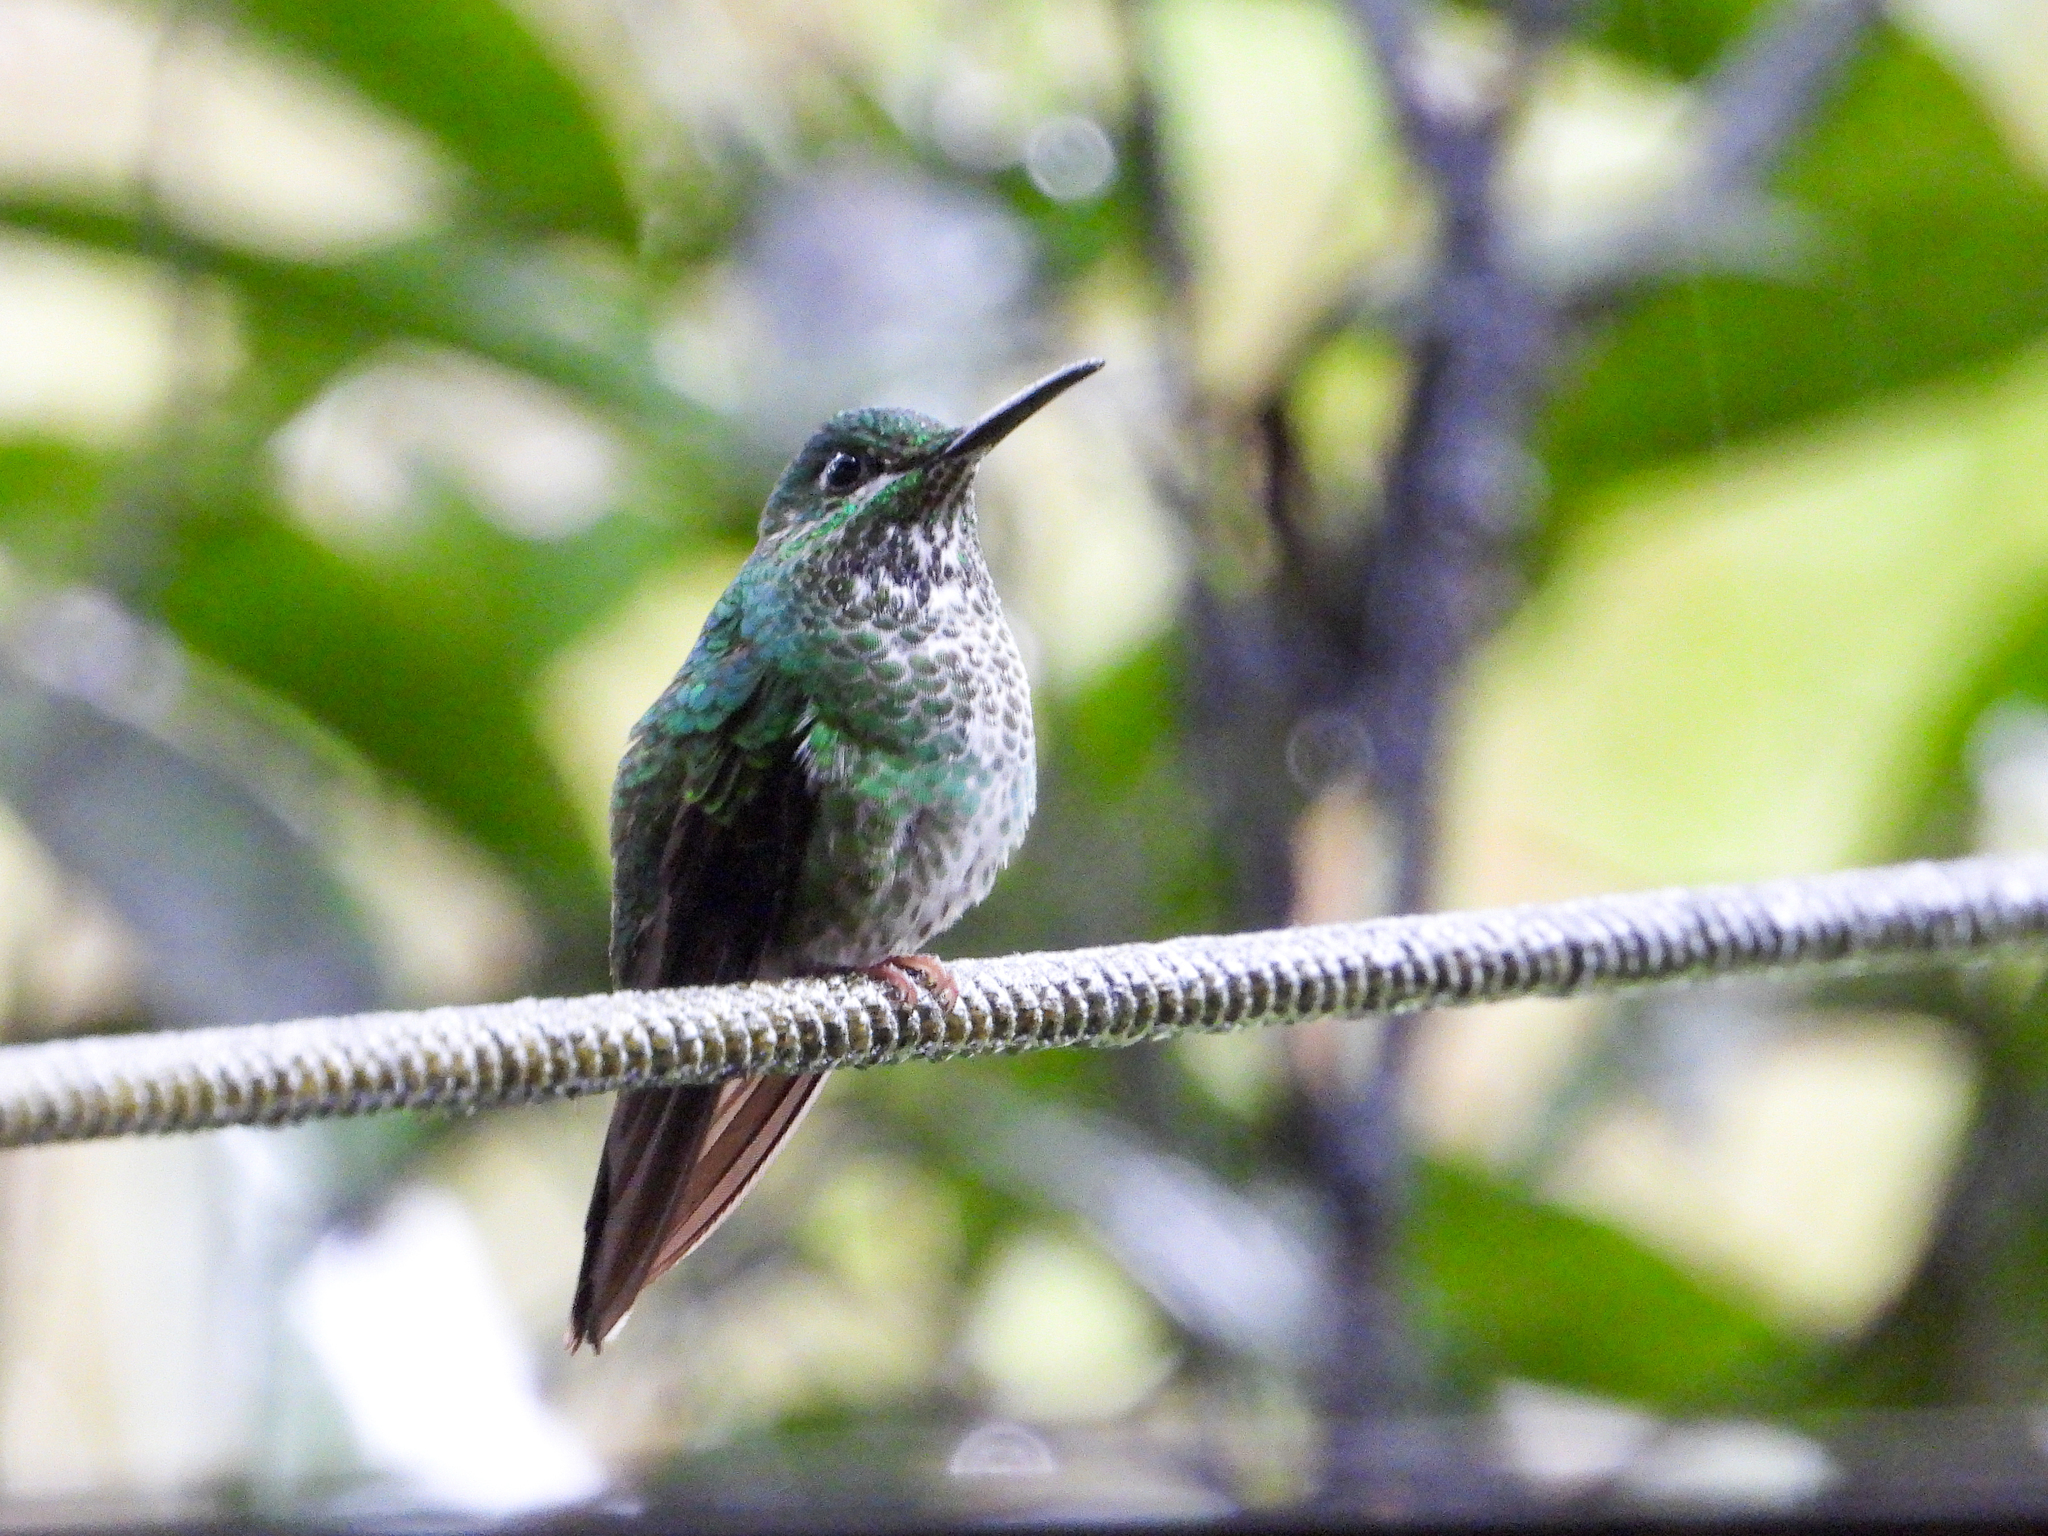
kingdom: Animalia
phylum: Chordata
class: Aves
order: Apodiformes
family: Trochilidae
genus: Heliodoxa
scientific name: Heliodoxa jacula
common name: Green-crowned brilliant
